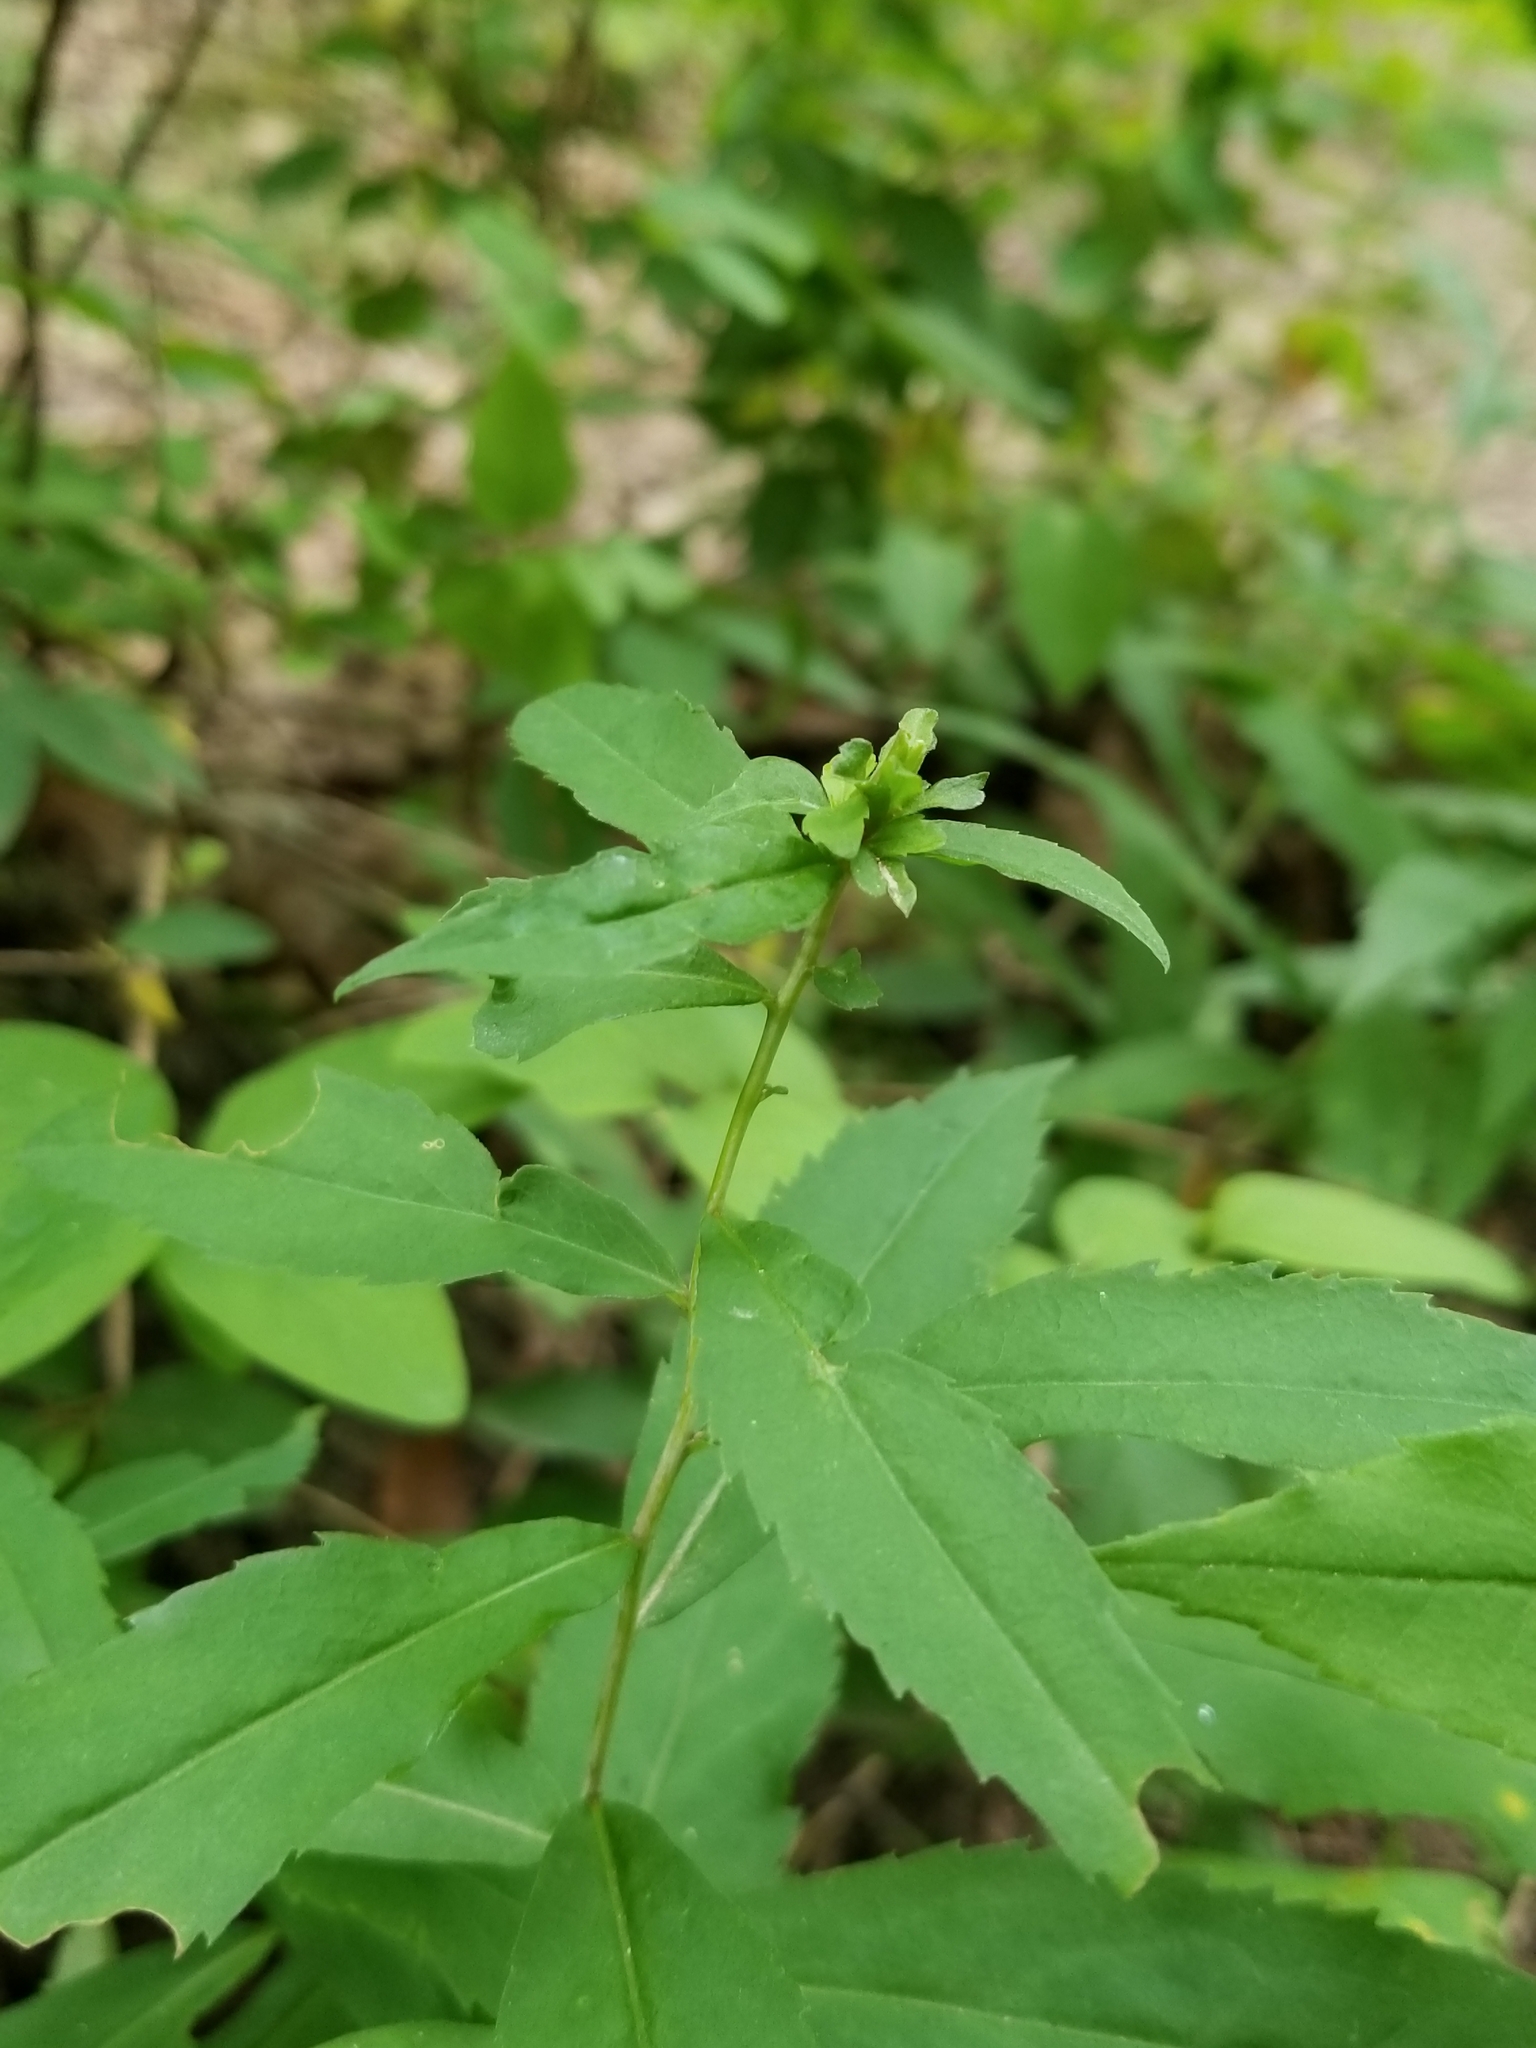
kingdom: Plantae
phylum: Tracheophyta
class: Magnoliopsida
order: Asterales
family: Asteraceae
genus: Solidago
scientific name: Solidago caesia
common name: Woodland goldenrod
